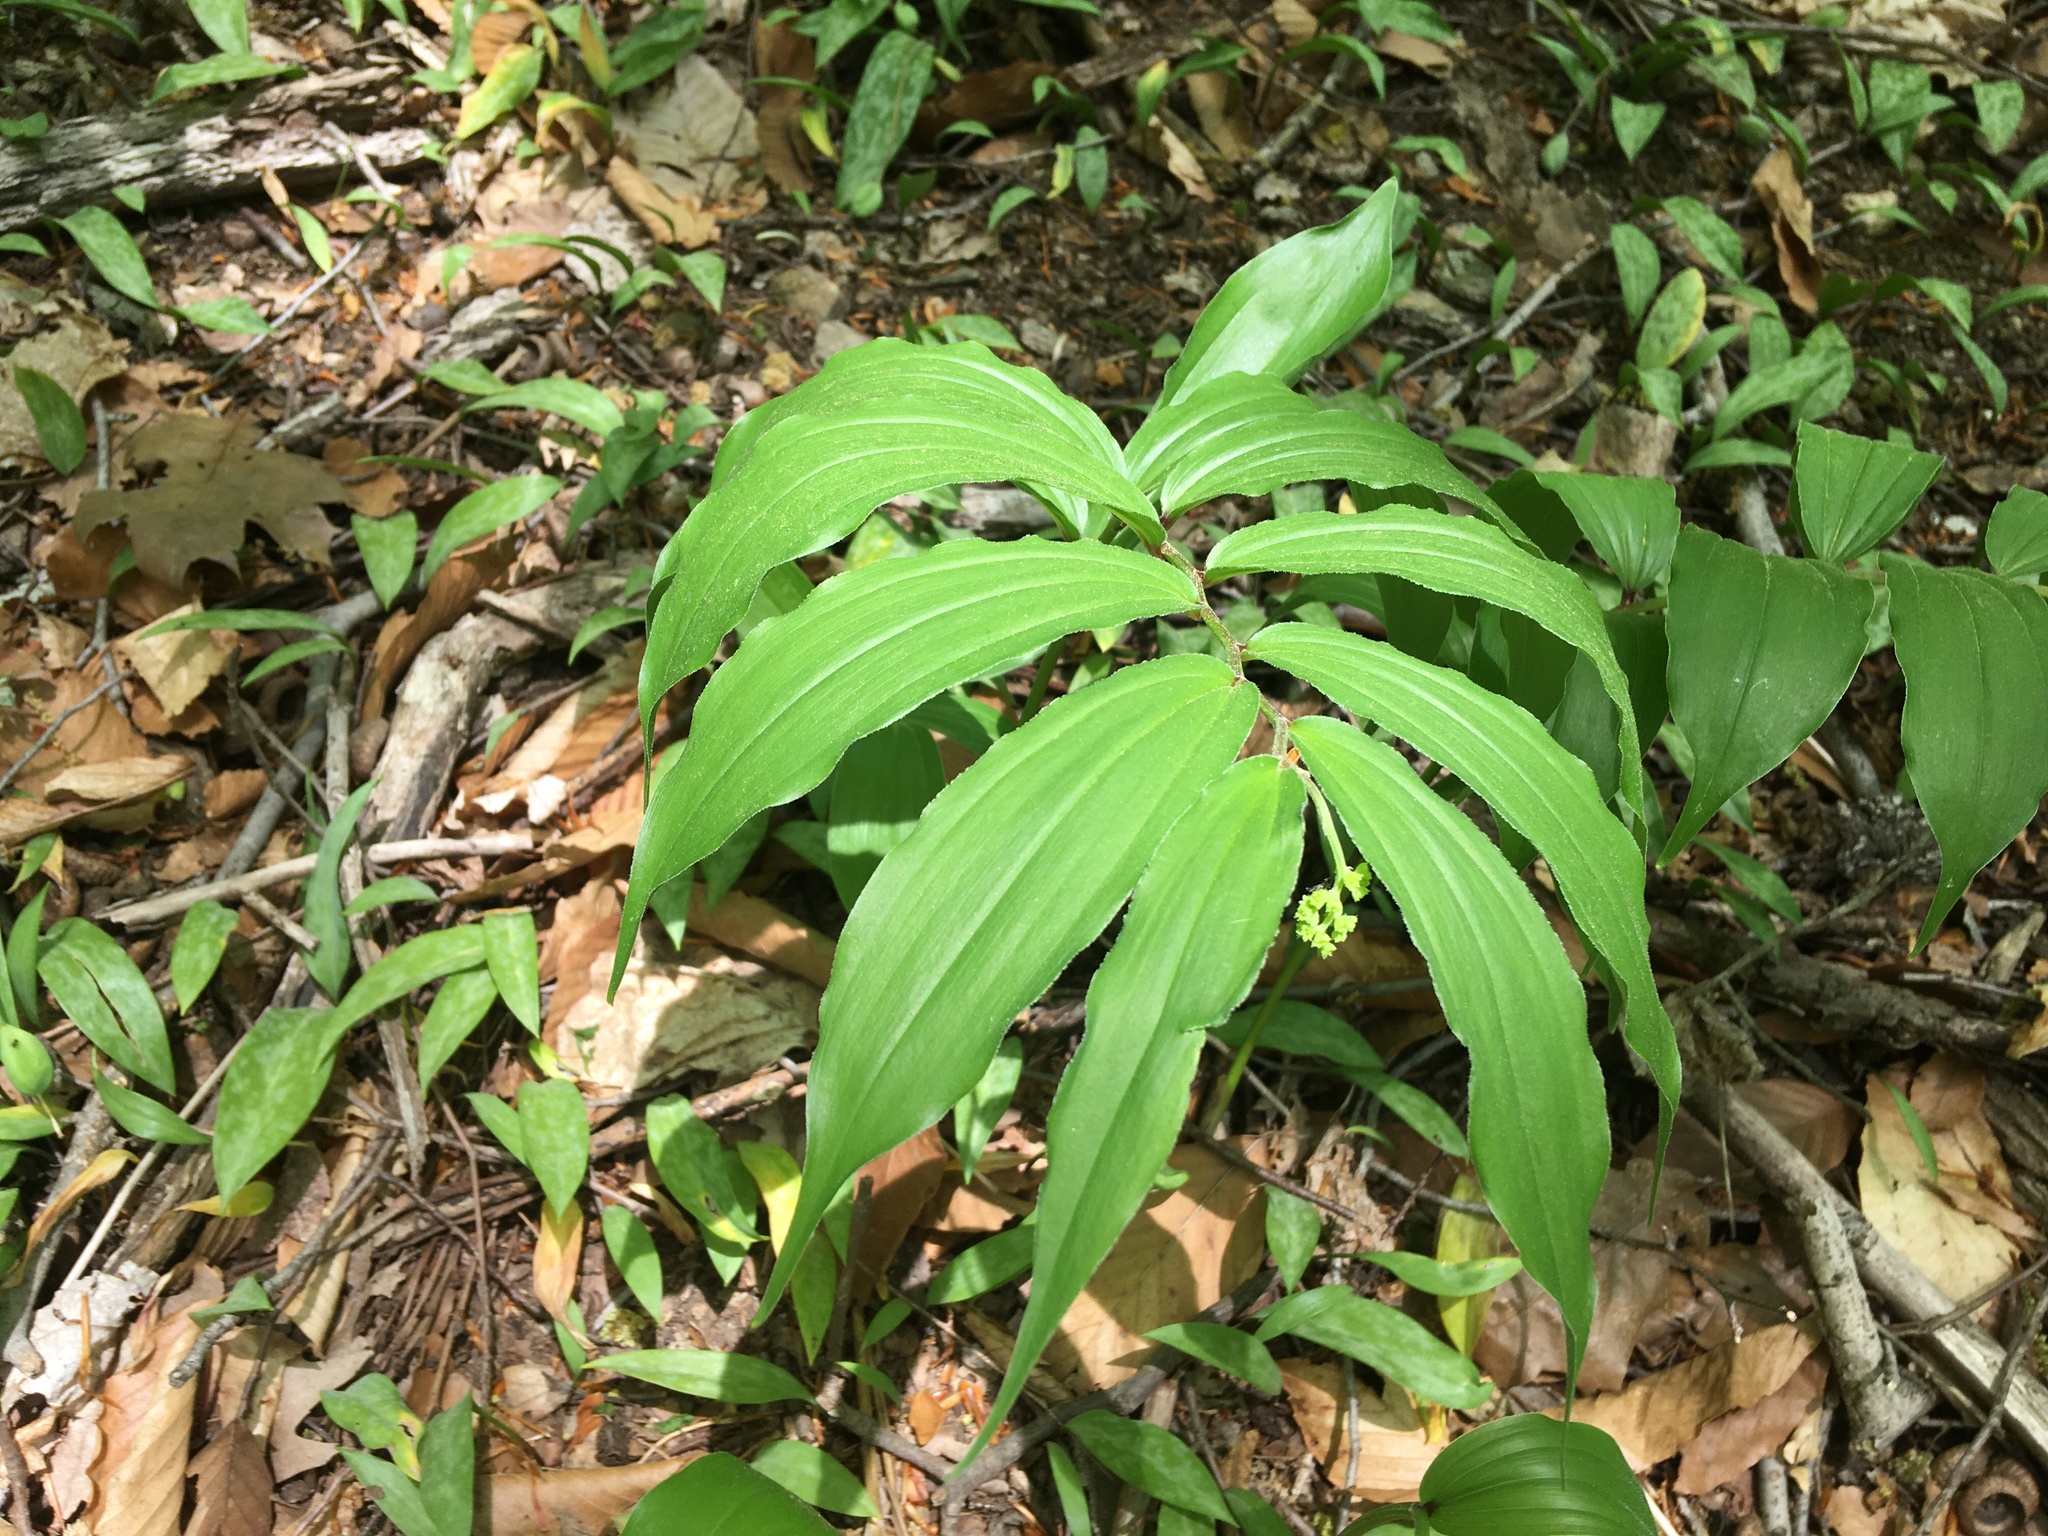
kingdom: Plantae
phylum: Tracheophyta
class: Liliopsida
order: Asparagales
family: Asparagaceae
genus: Maianthemum
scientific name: Maianthemum racemosum
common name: False spikenard
